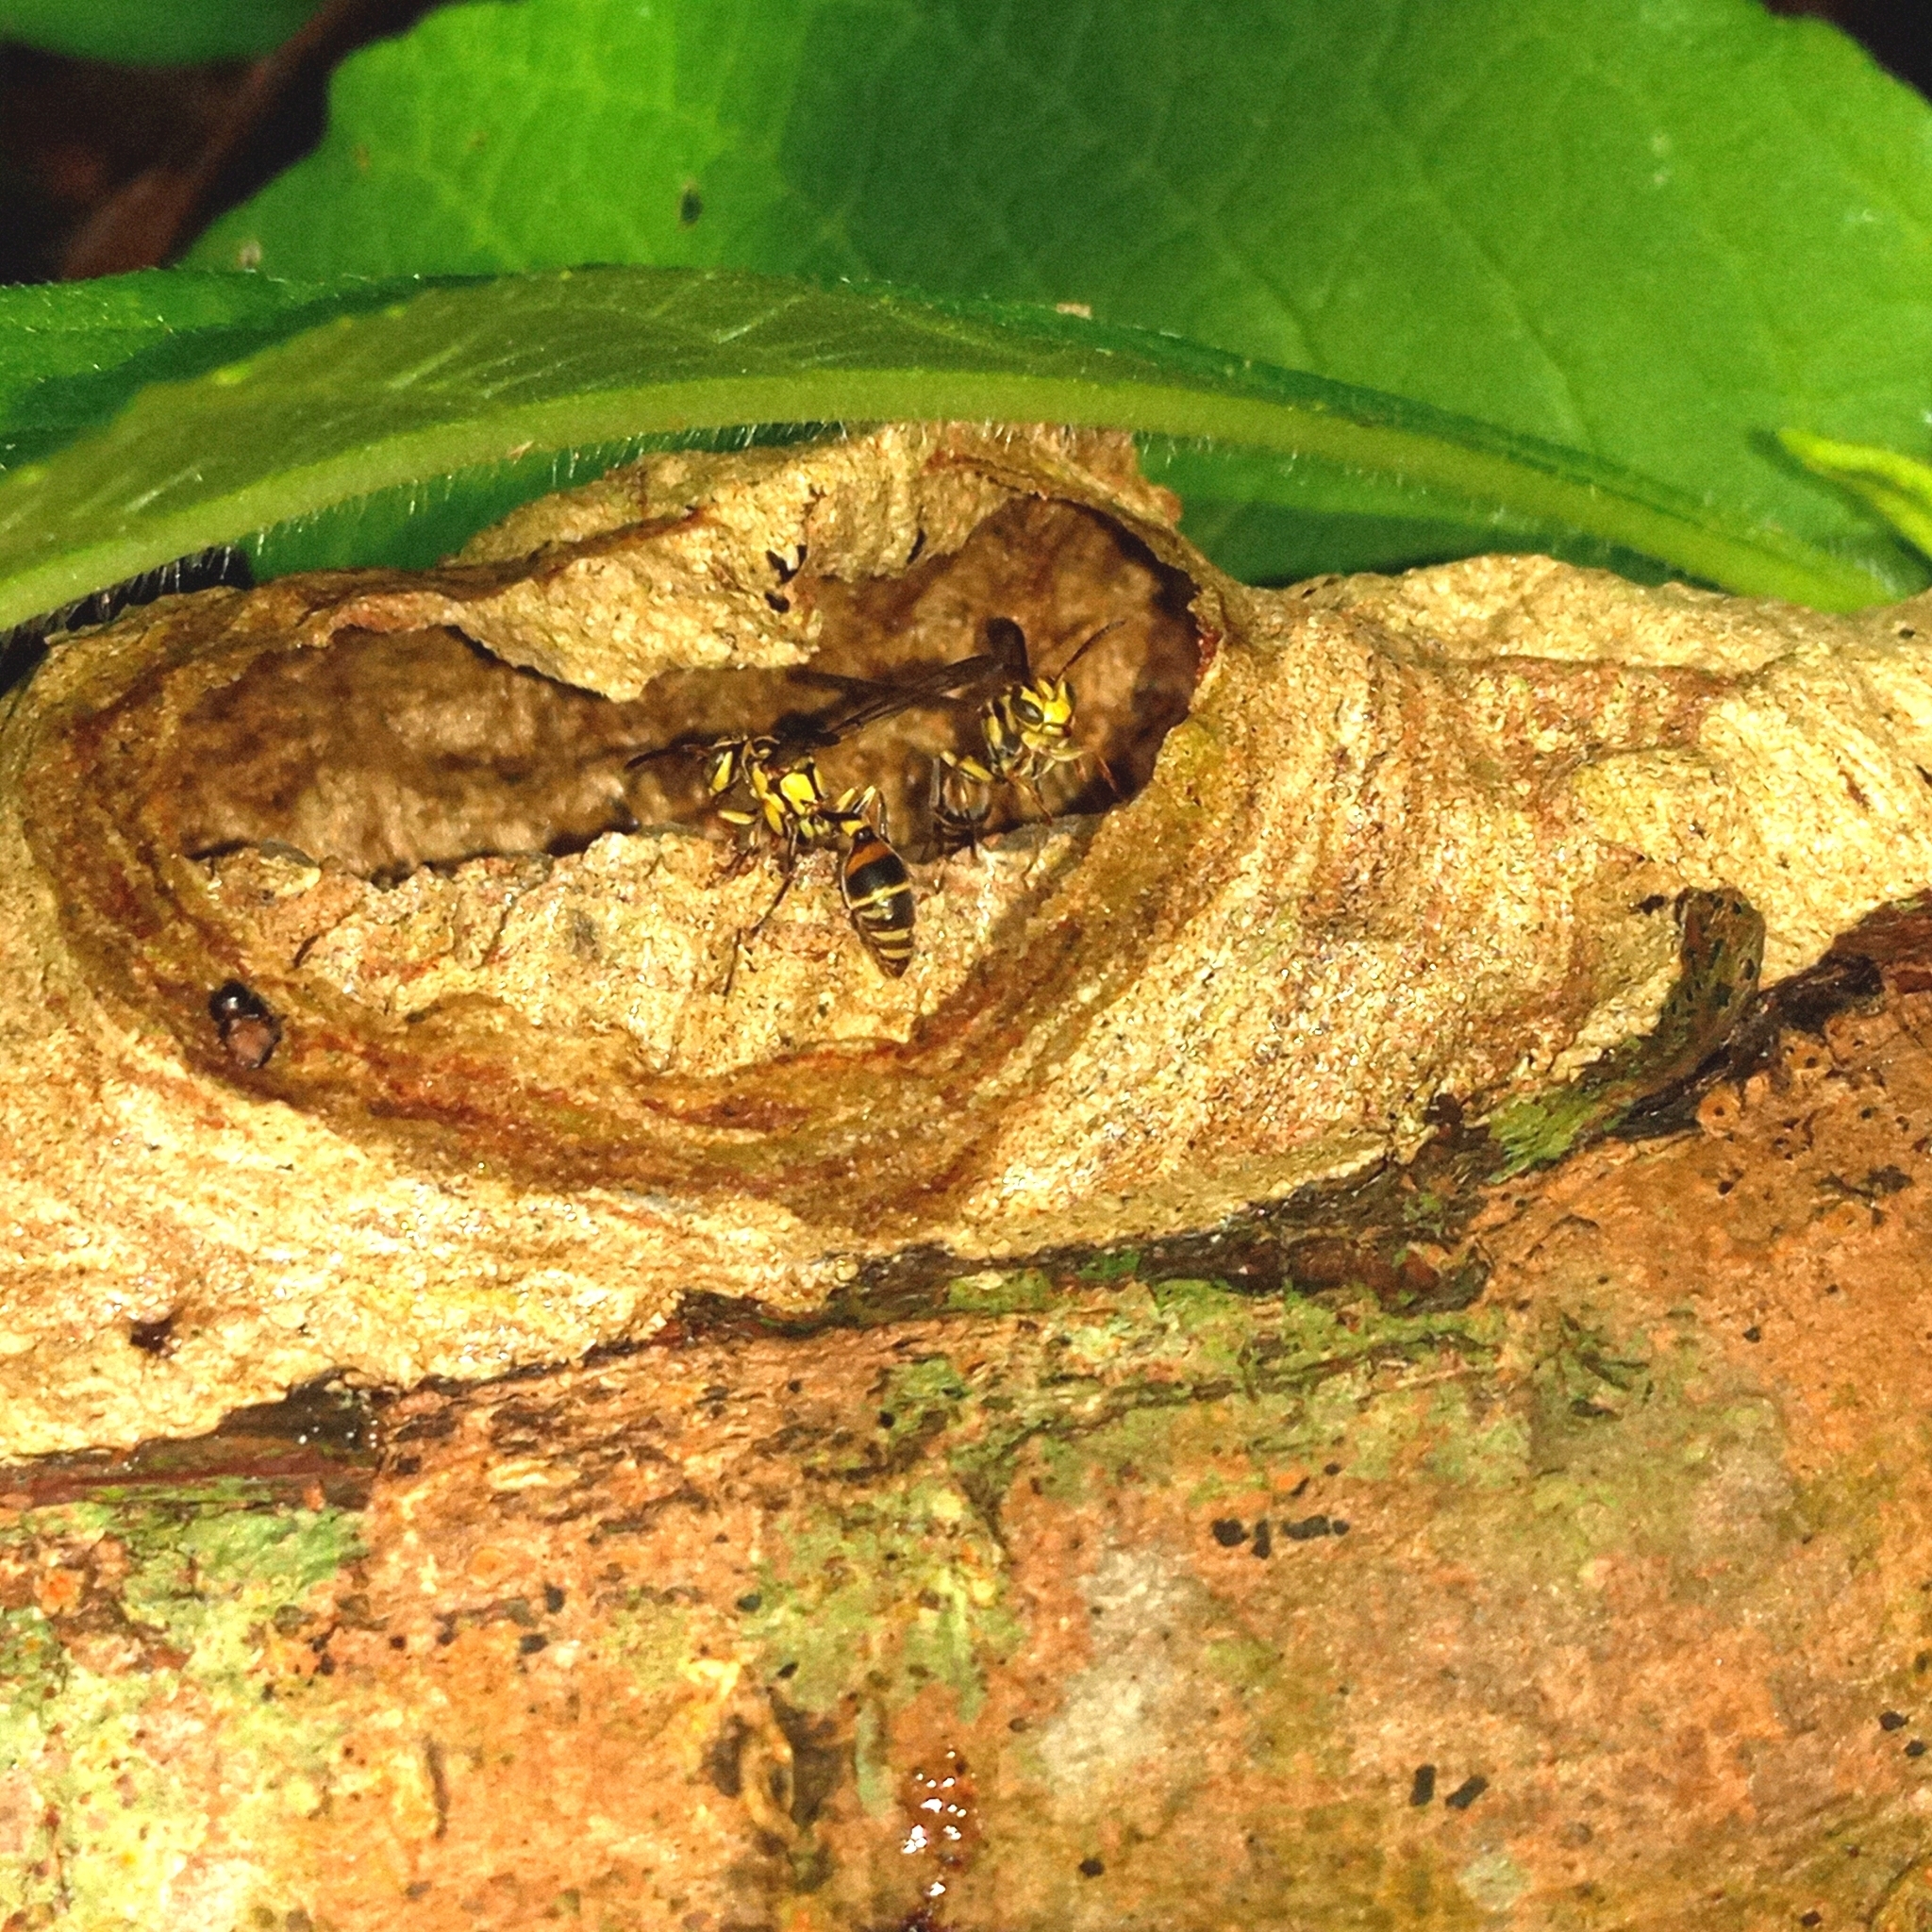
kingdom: Animalia
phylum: Arthropoda
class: Insecta
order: Hymenoptera
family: Vespidae
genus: Ropalidia
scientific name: Ropalidia flavobrunnea
